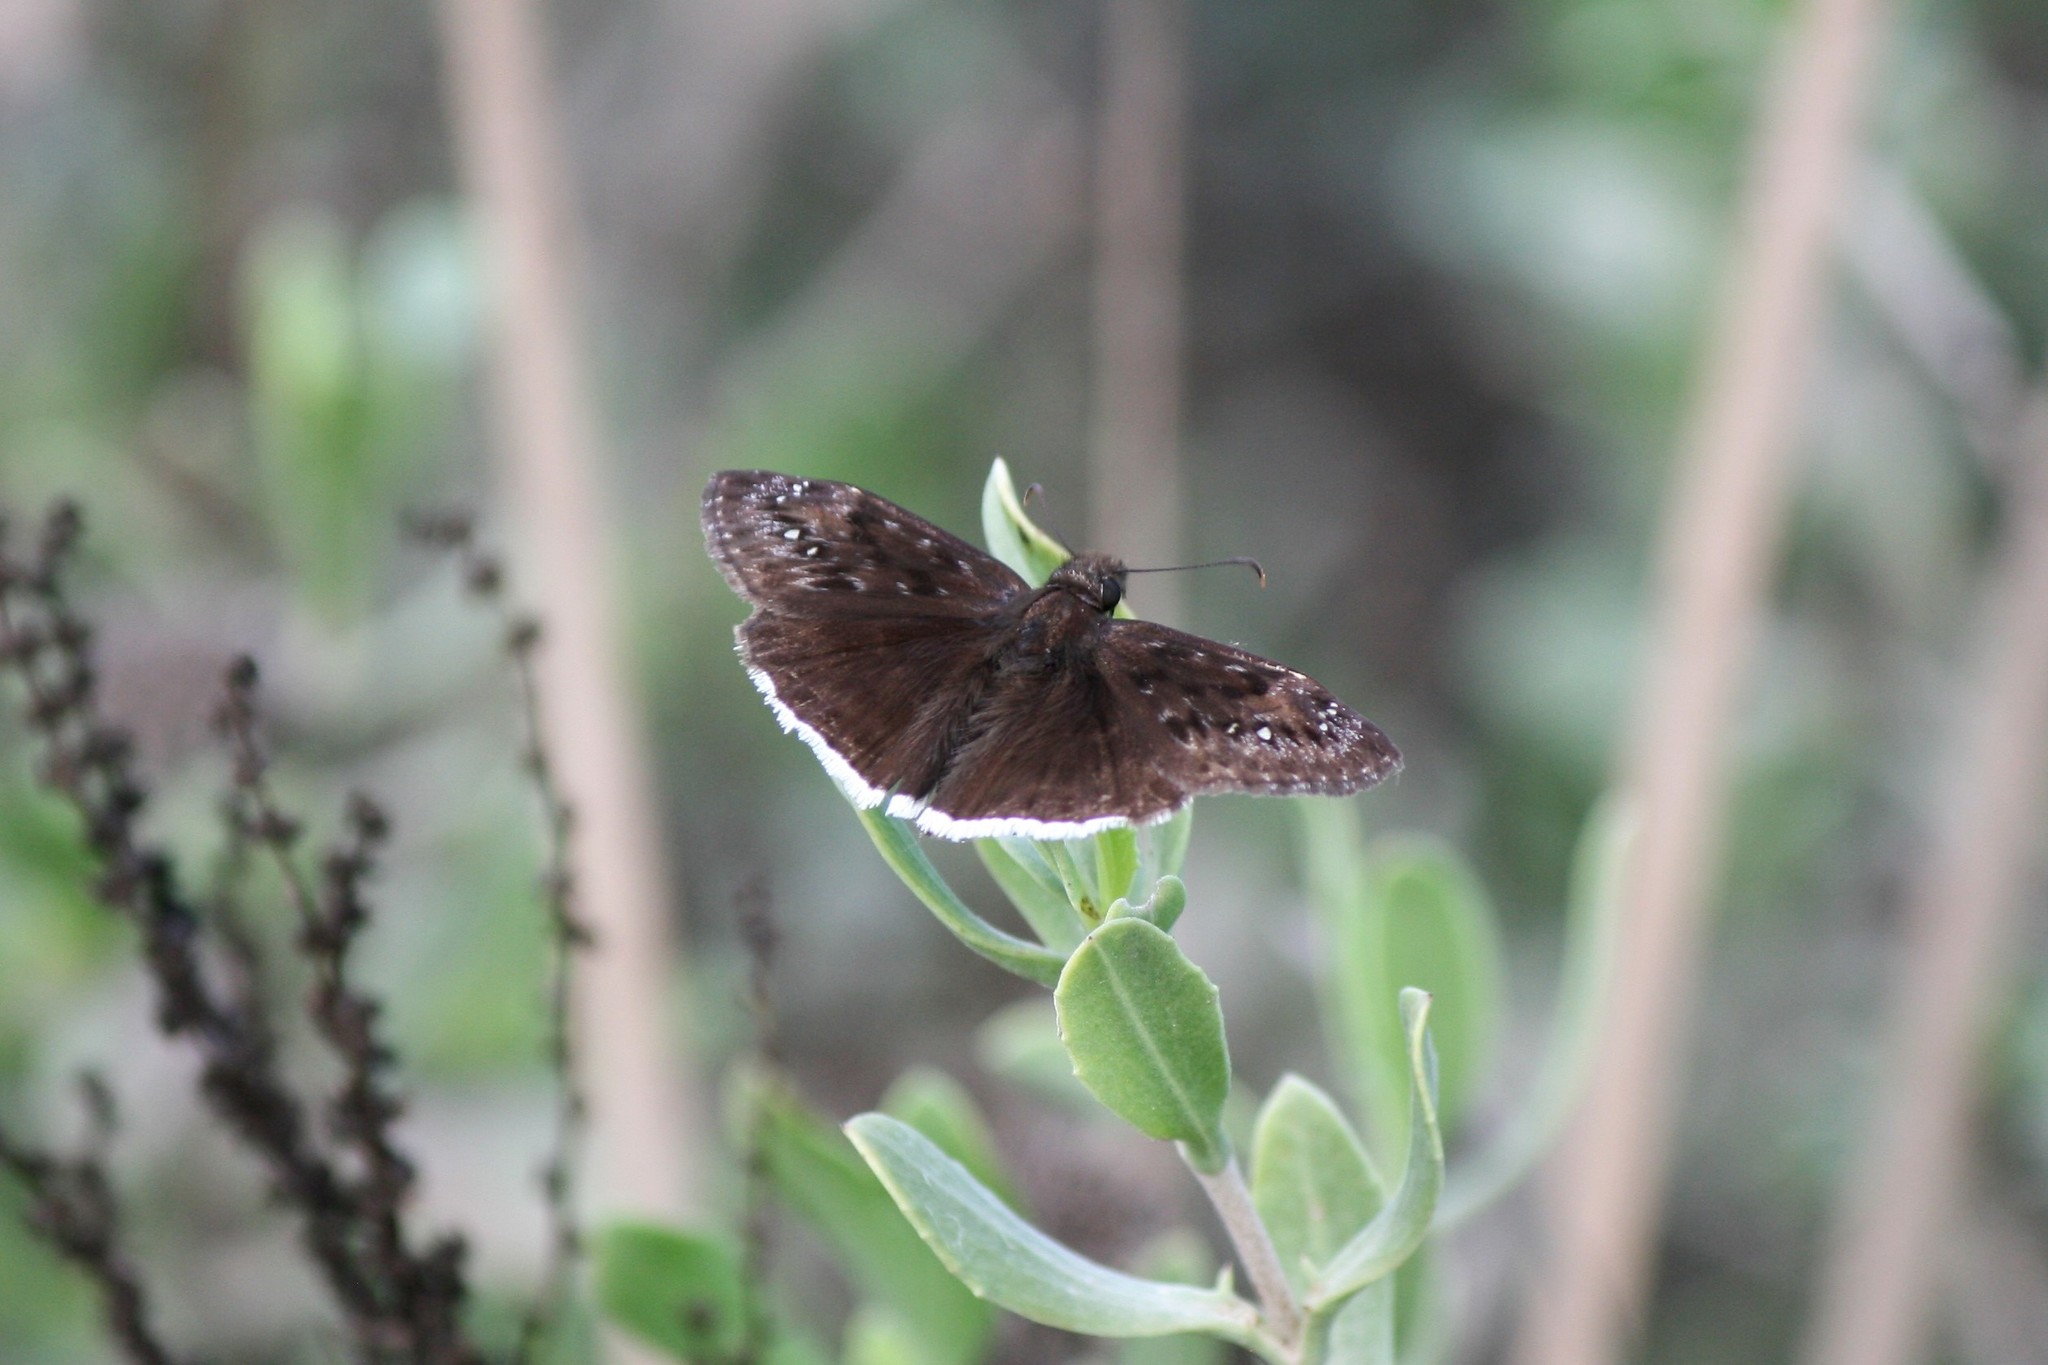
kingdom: Animalia
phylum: Arthropoda
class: Insecta
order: Lepidoptera
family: Hesperiidae
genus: Erynnis
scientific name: Erynnis funeralis
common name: Funereal duskywing
